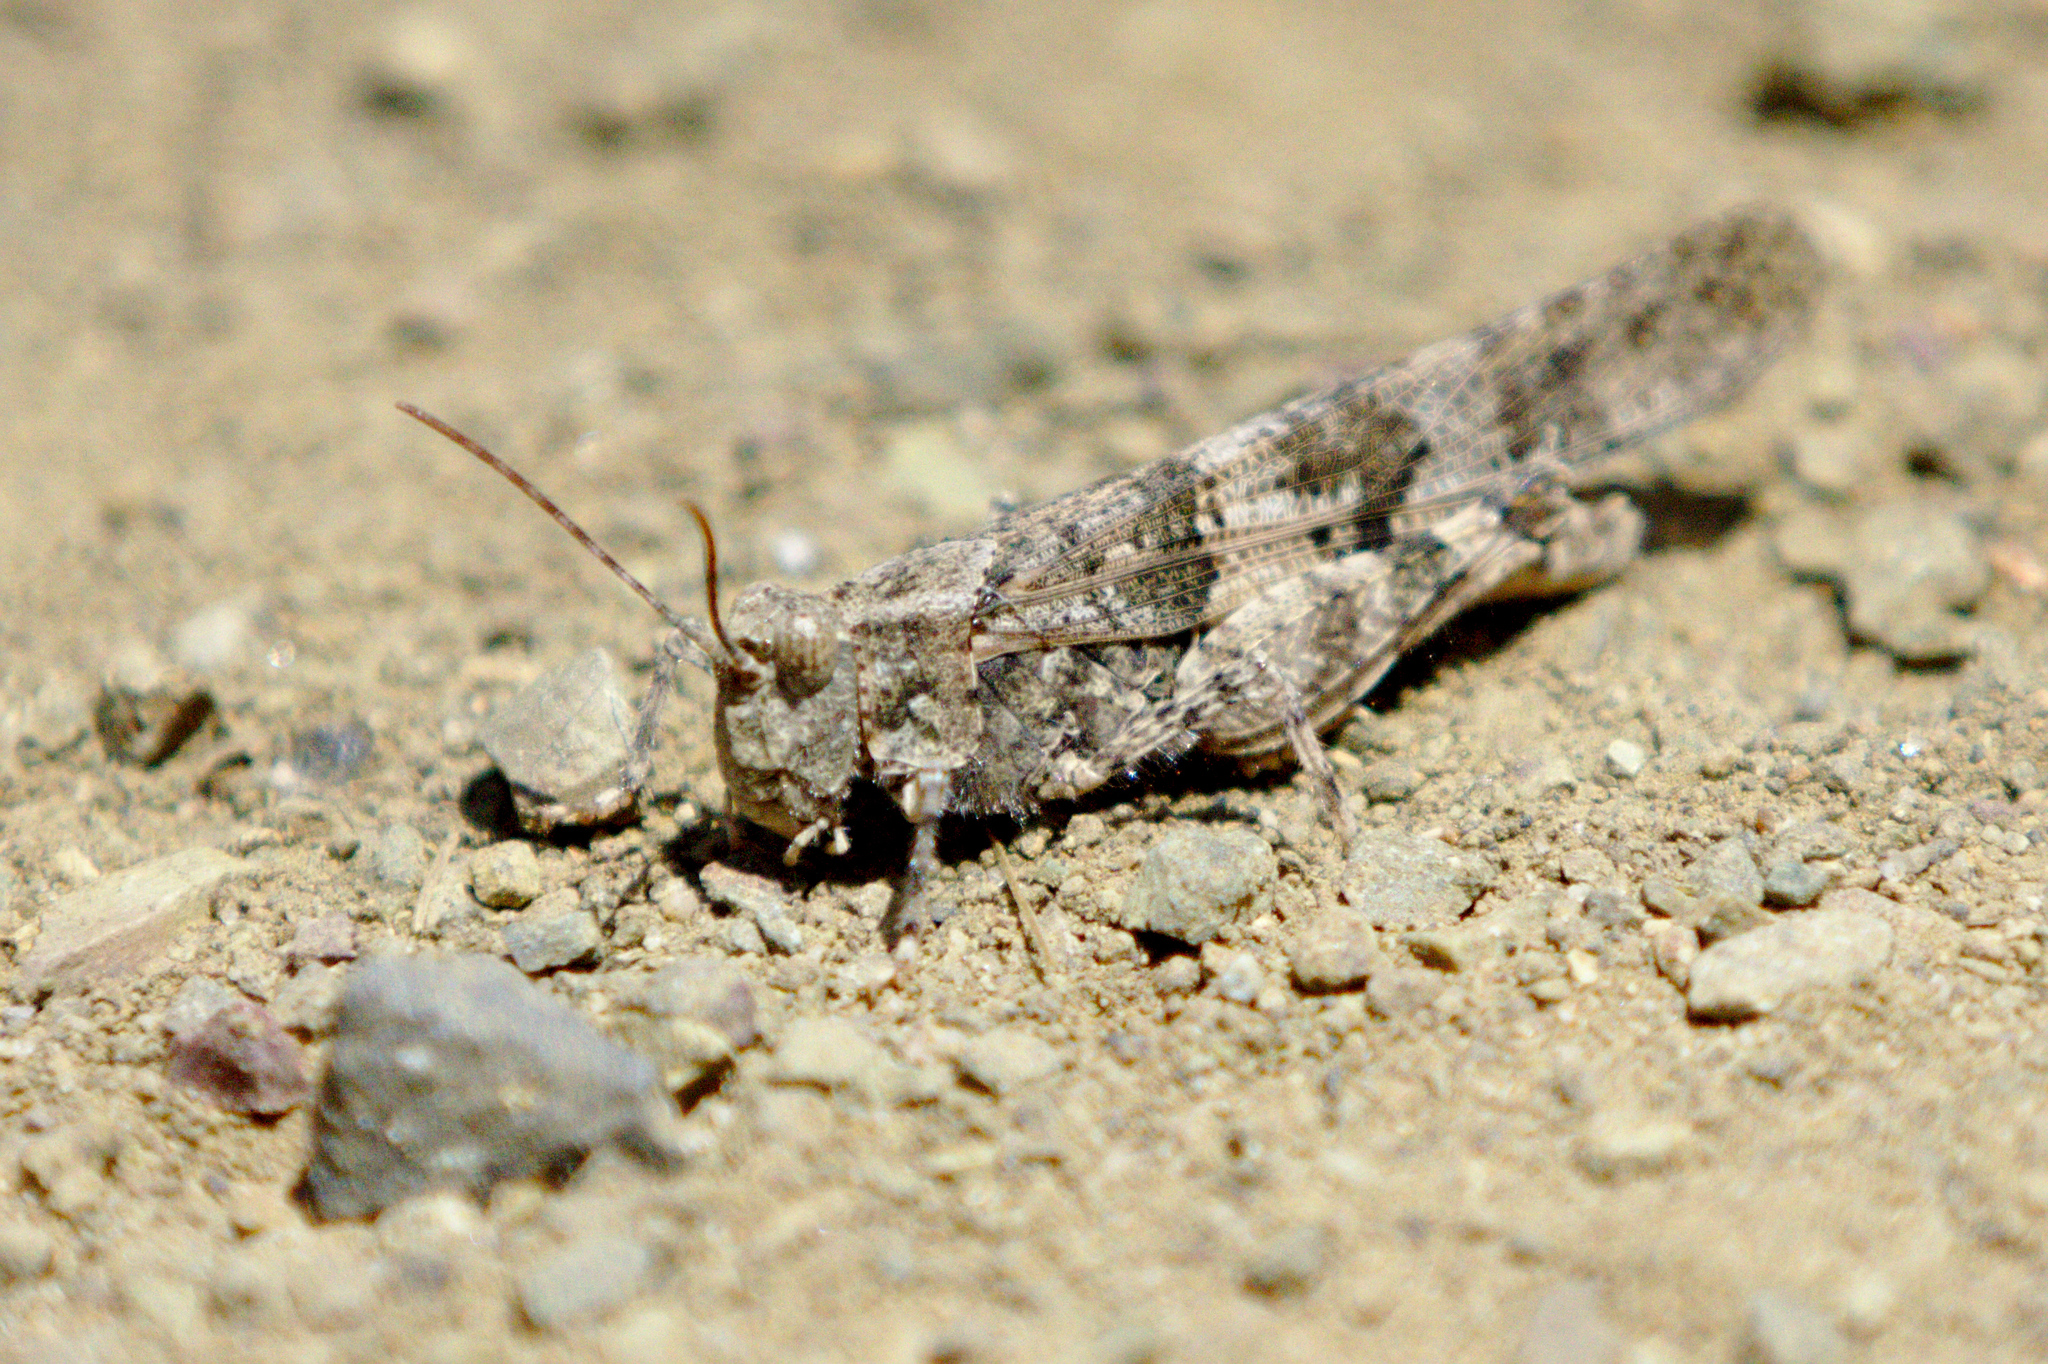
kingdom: Animalia
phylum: Arthropoda
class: Insecta
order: Orthoptera
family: Acrididae
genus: Trimerotropis
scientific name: Trimerotropis pallidipennis
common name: Pallid-winged grasshopper
